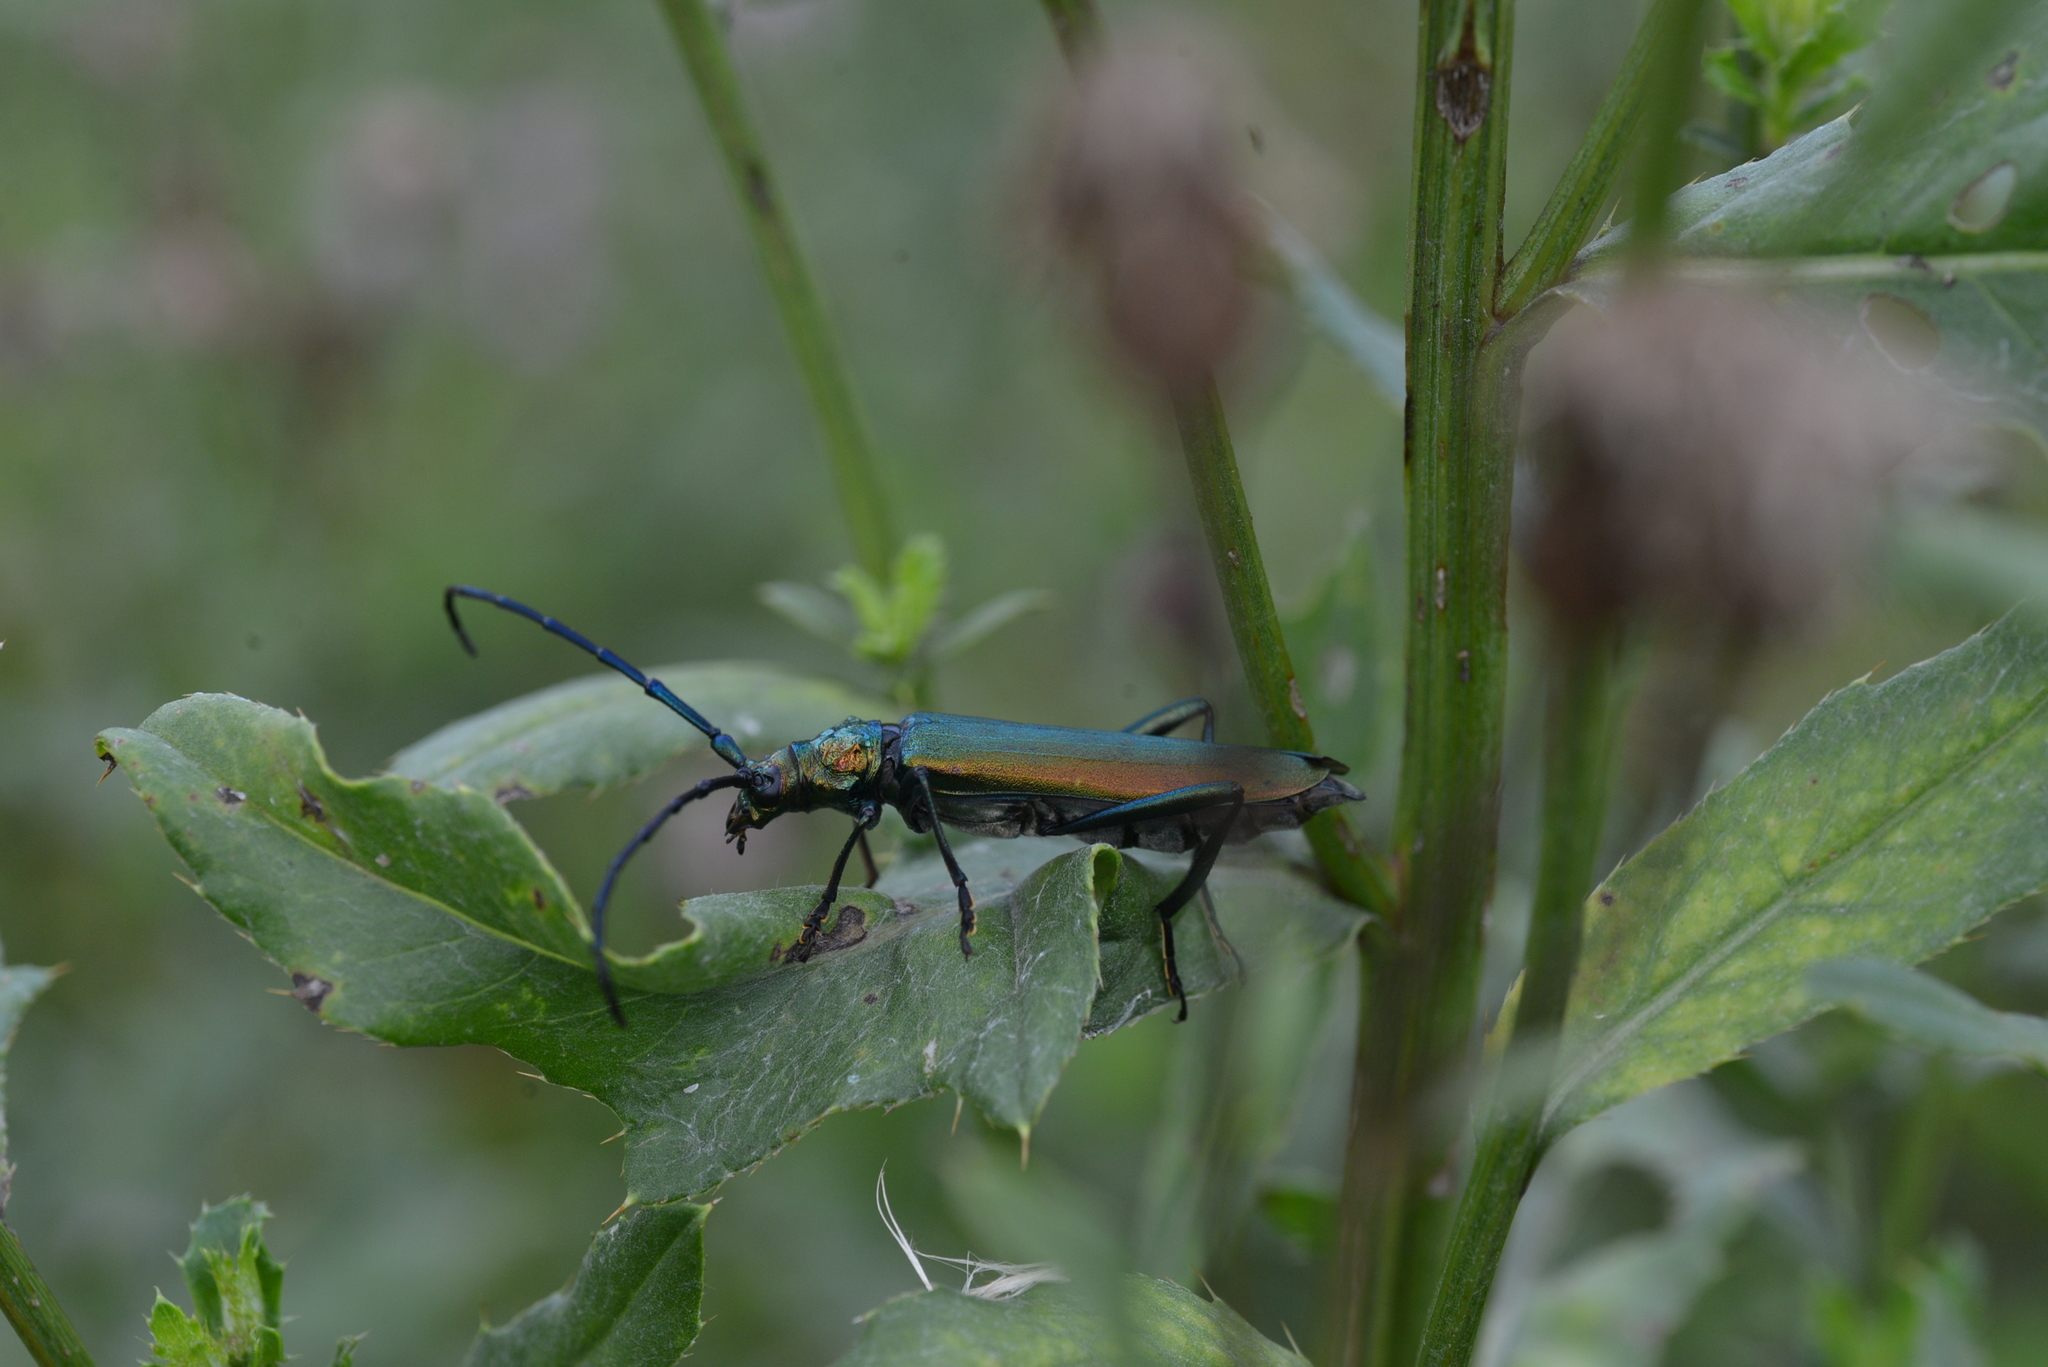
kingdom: Animalia
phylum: Arthropoda
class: Insecta
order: Coleoptera
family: Cerambycidae
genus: Aromia
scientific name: Aromia moschata
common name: Musk beetle
